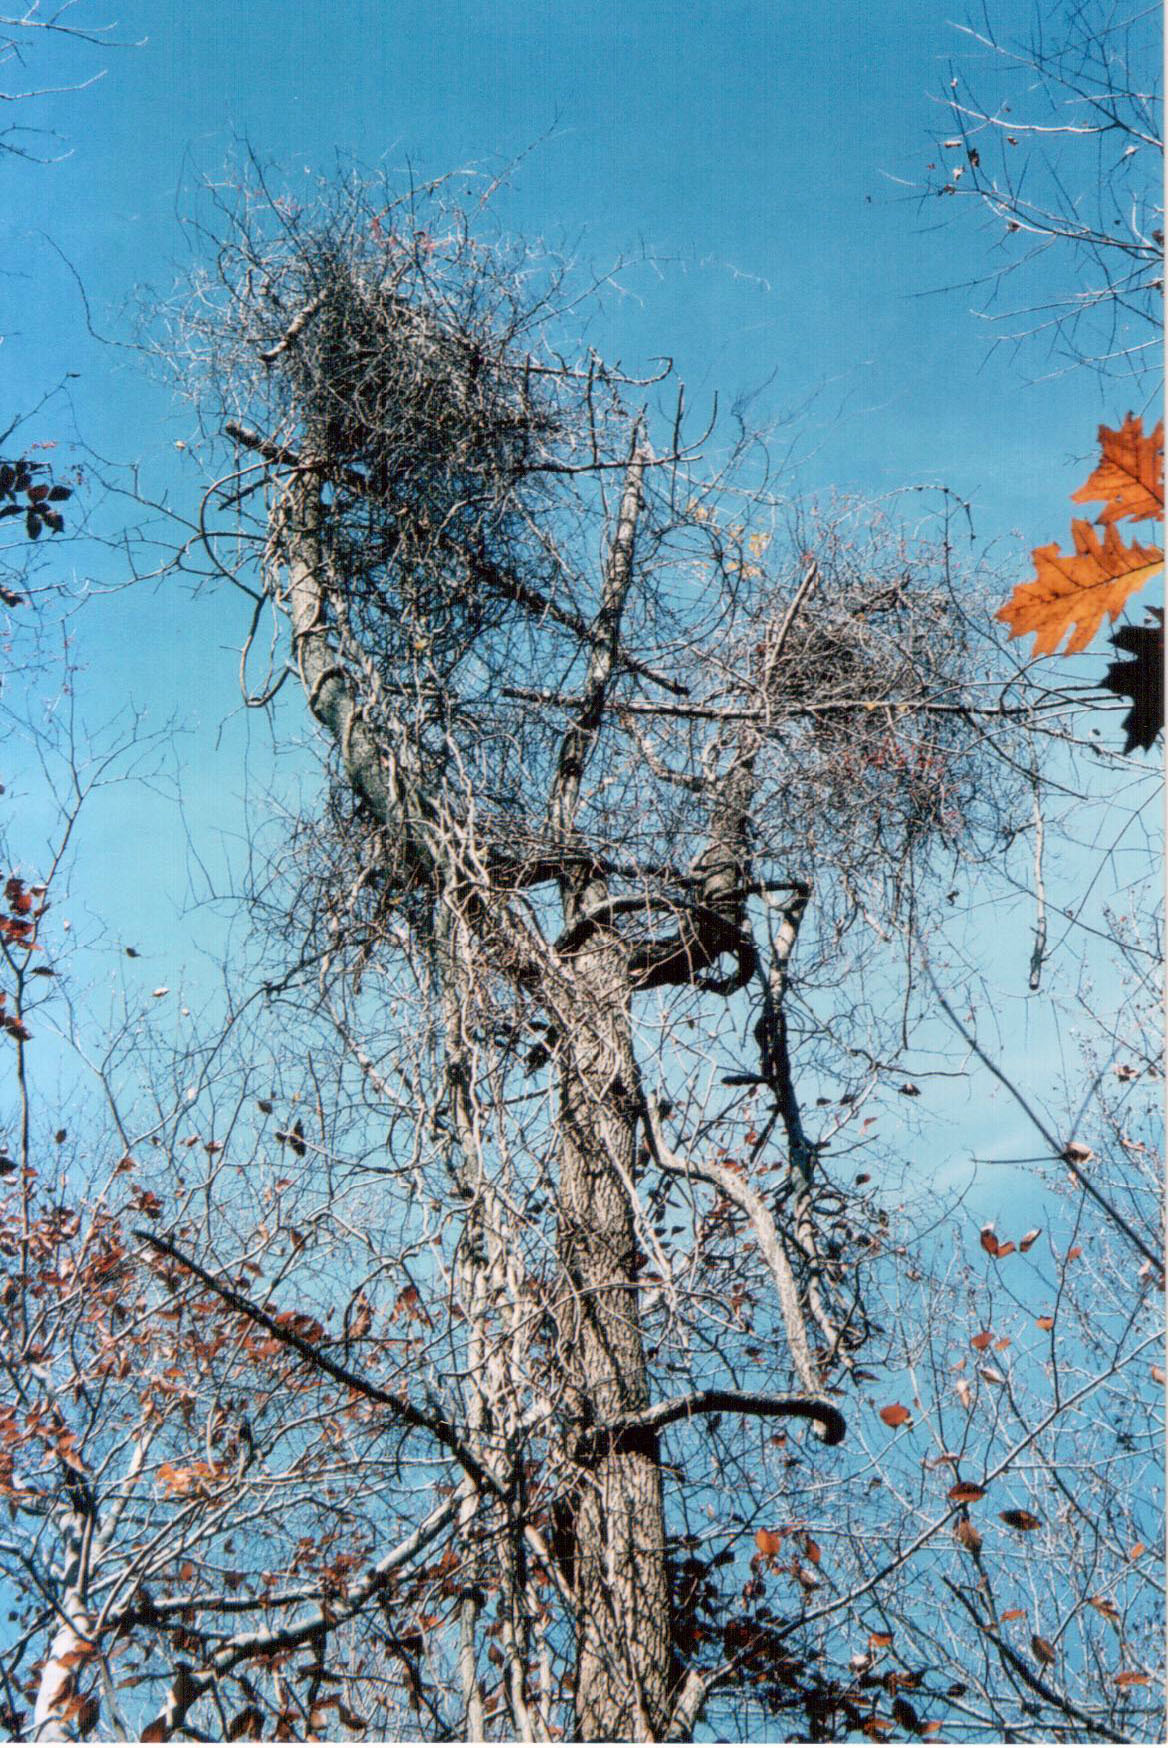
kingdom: Plantae
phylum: Tracheophyta
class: Magnoliopsida
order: Celastrales
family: Celastraceae
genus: Celastrus
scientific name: Celastrus orbiculatus
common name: Oriental bittersweet
